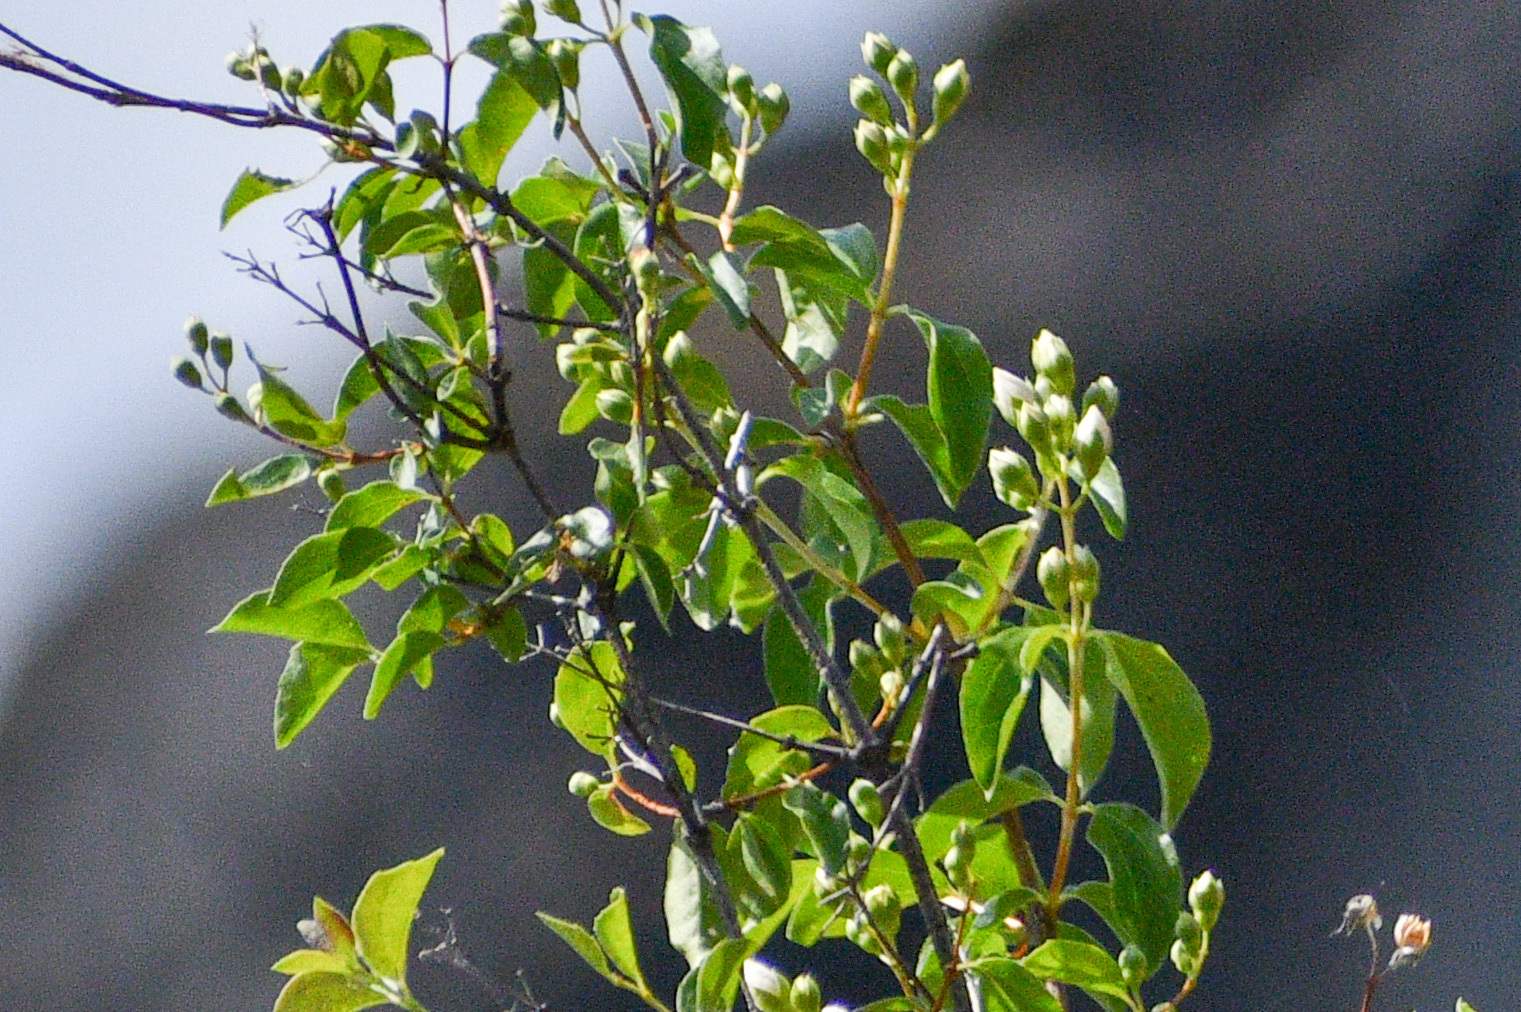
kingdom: Plantae
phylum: Tracheophyta
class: Magnoliopsida
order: Cornales
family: Hydrangeaceae
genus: Philadelphus
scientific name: Philadelphus lewisii
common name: Lewis's mock orange
